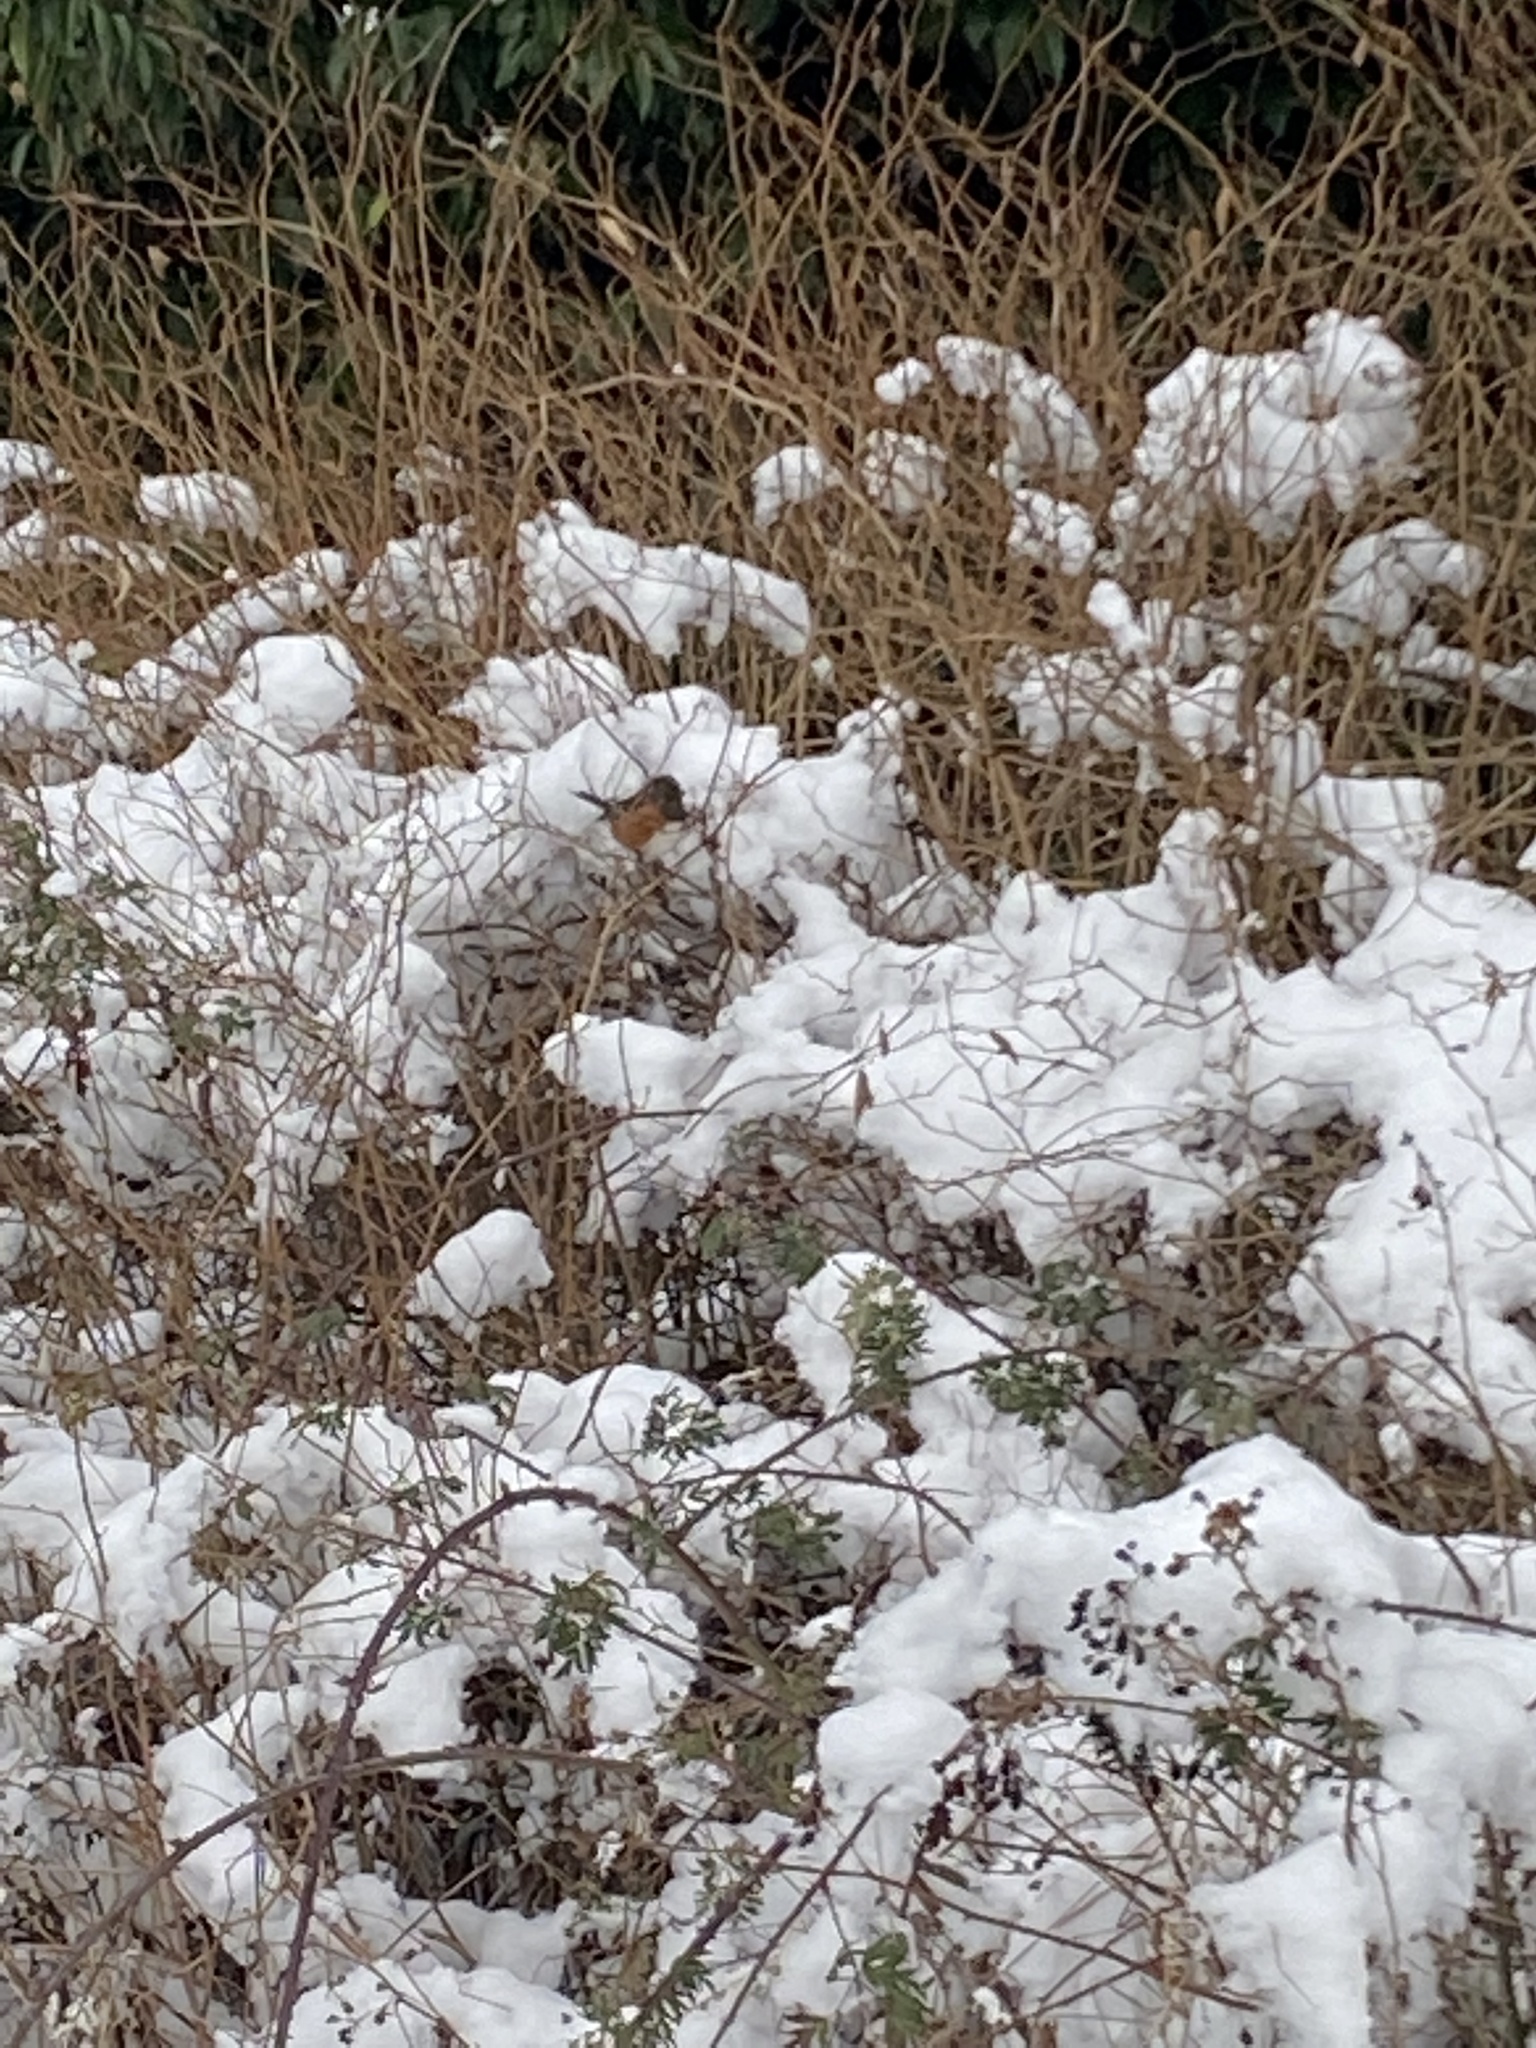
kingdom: Animalia
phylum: Chordata
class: Aves
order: Passeriformes
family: Passerellidae
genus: Pipilo
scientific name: Pipilo maculatus
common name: Spotted towhee
